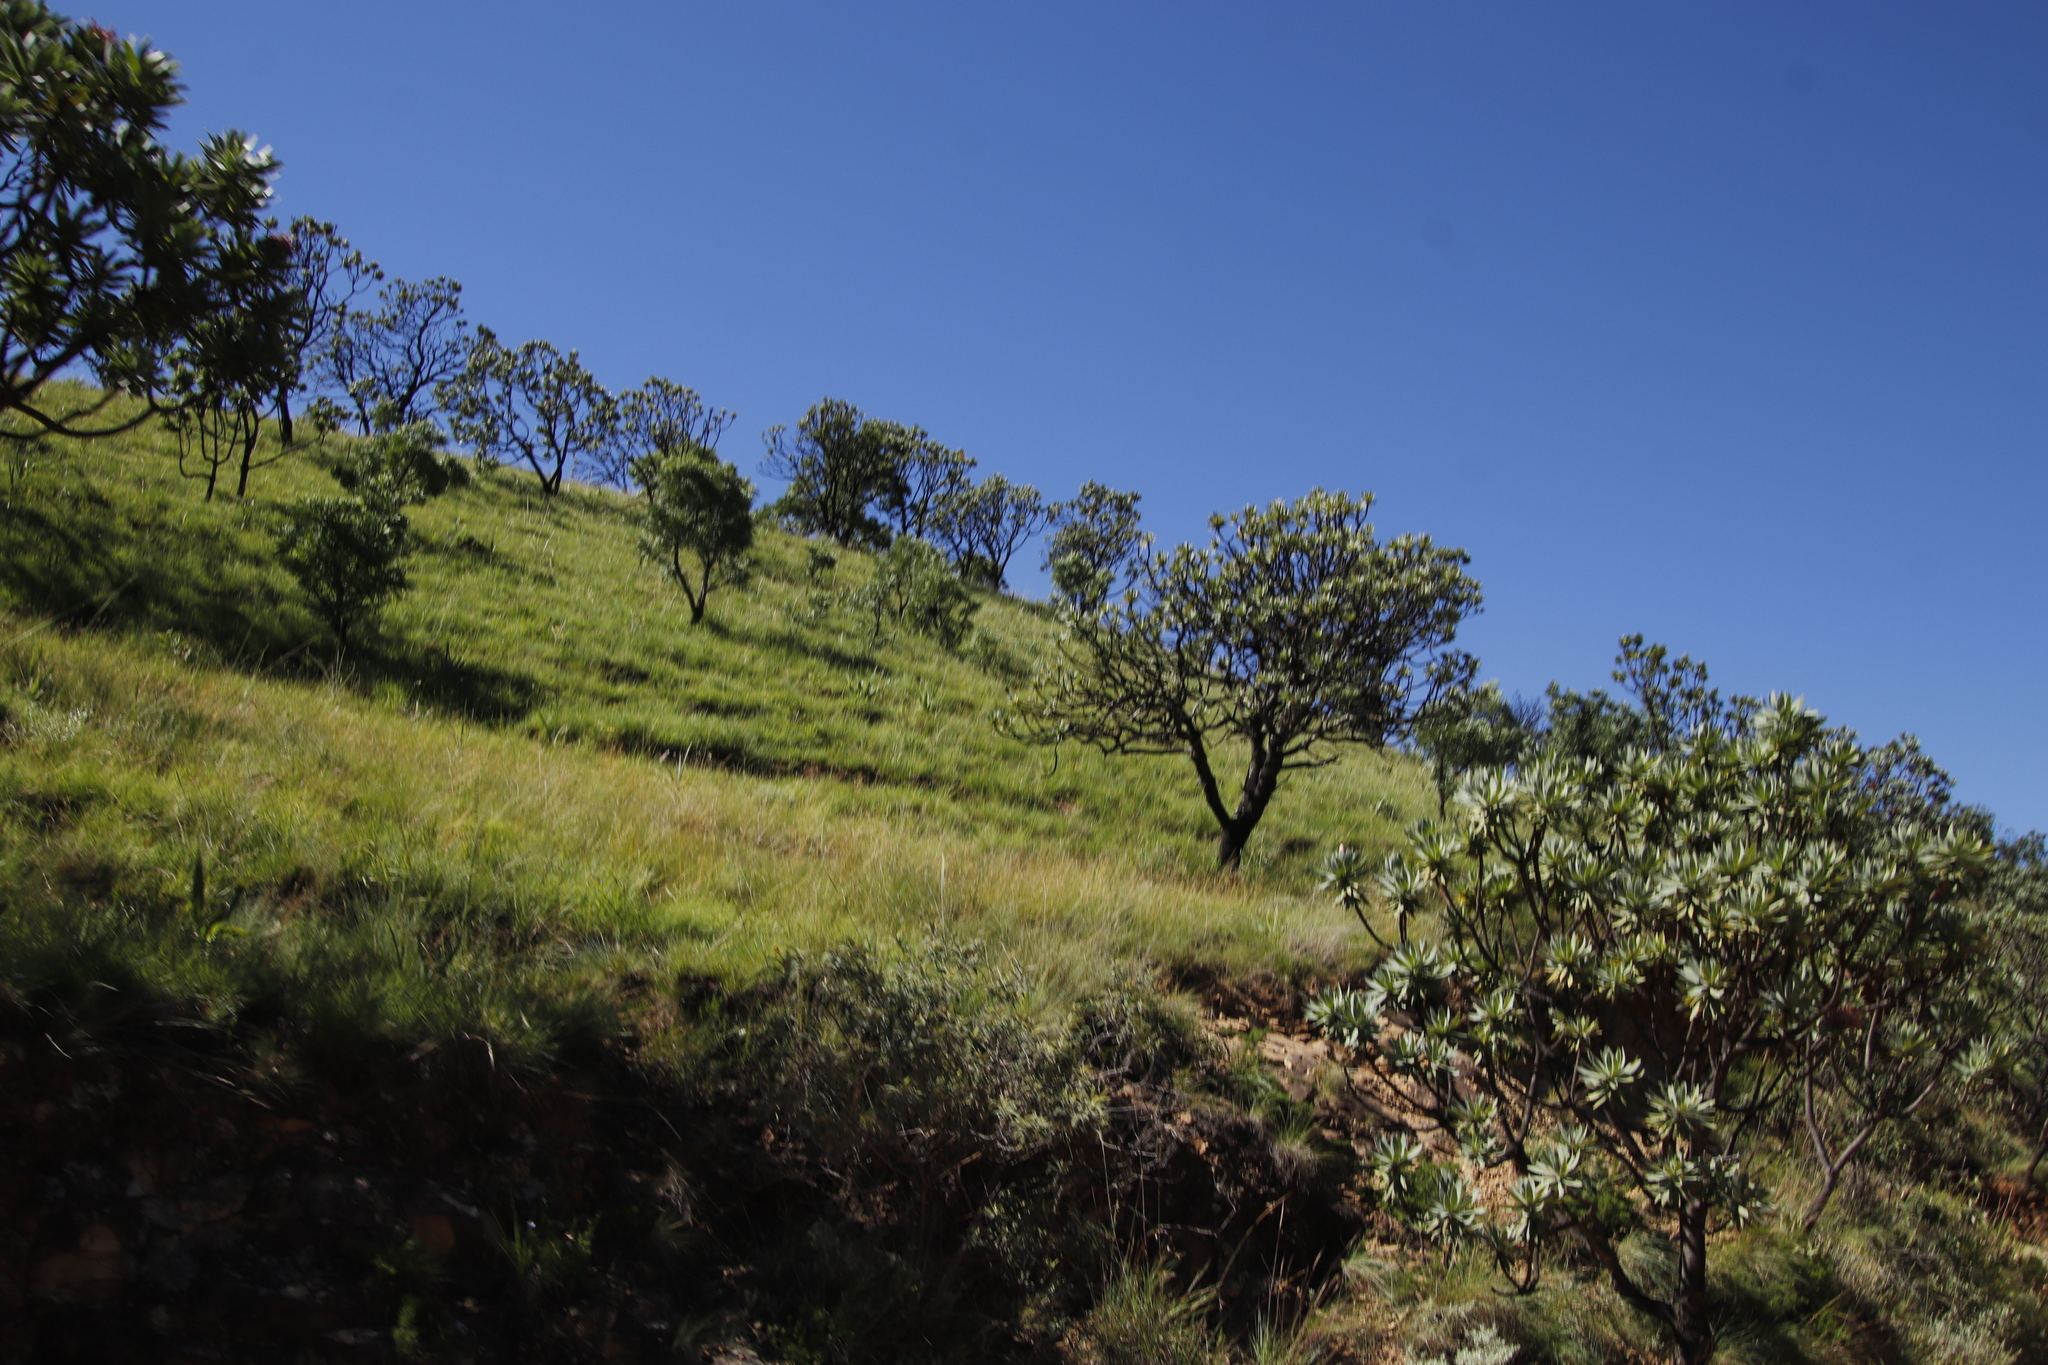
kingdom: Plantae
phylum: Tracheophyta
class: Magnoliopsida
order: Proteales
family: Proteaceae
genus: Protea
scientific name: Protea roupelliae
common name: Silver sugarbush
